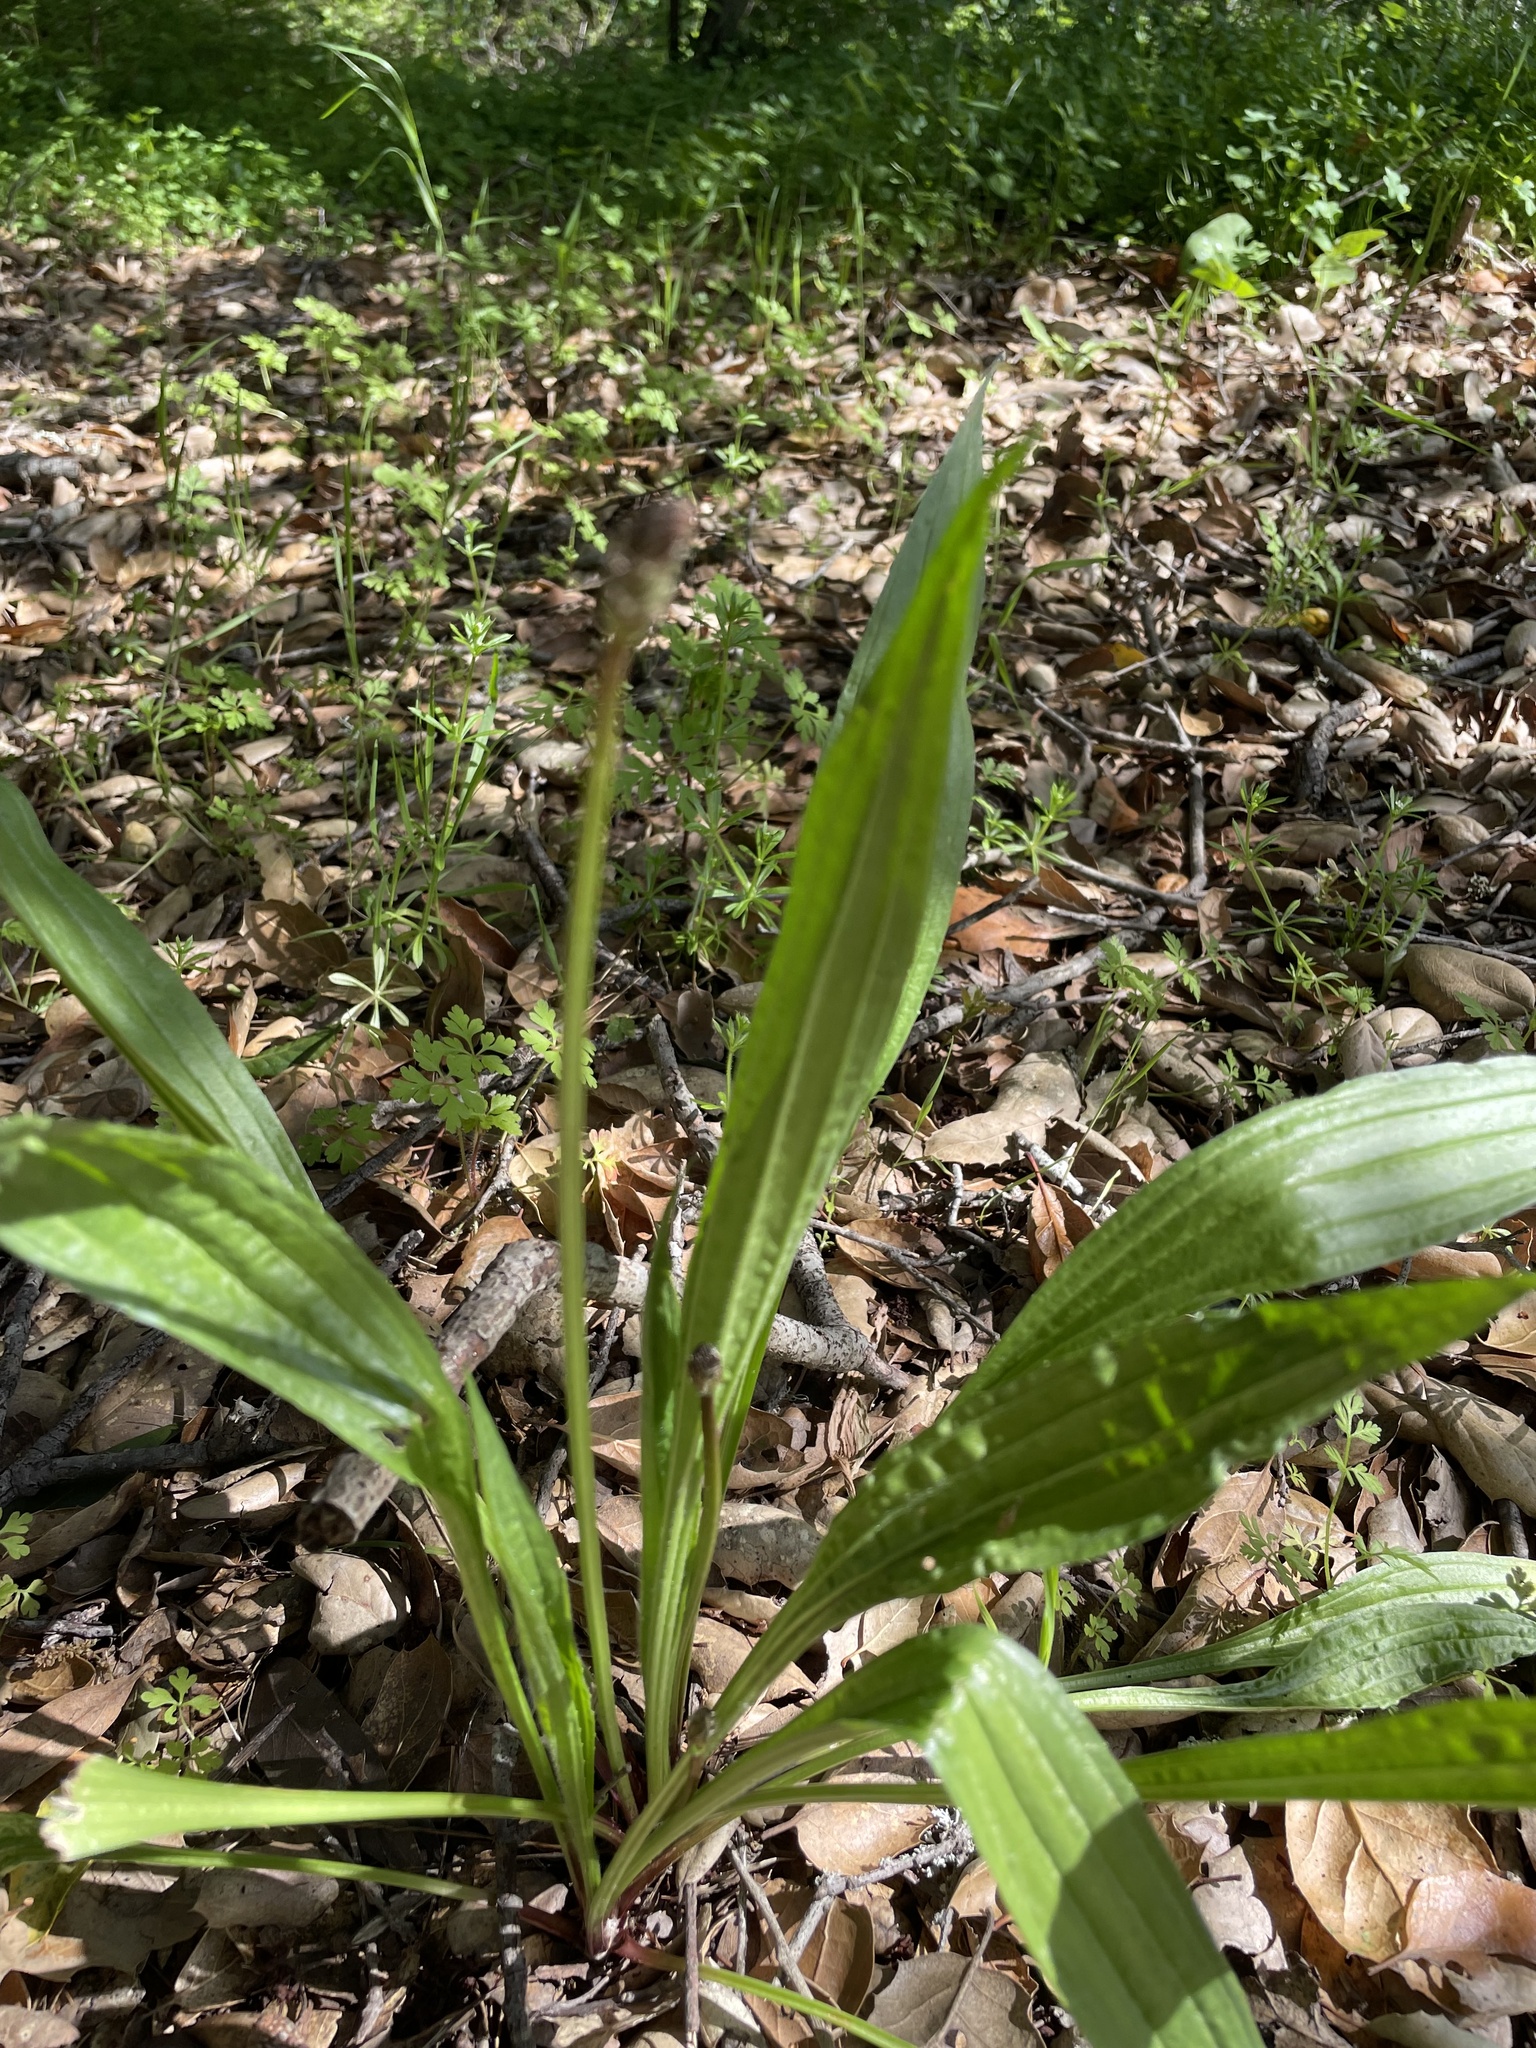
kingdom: Plantae
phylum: Tracheophyta
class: Magnoliopsida
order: Lamiales
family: Plantaginaceae
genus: Plantago
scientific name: Plantago lanceolata
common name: Ribwort plantain
